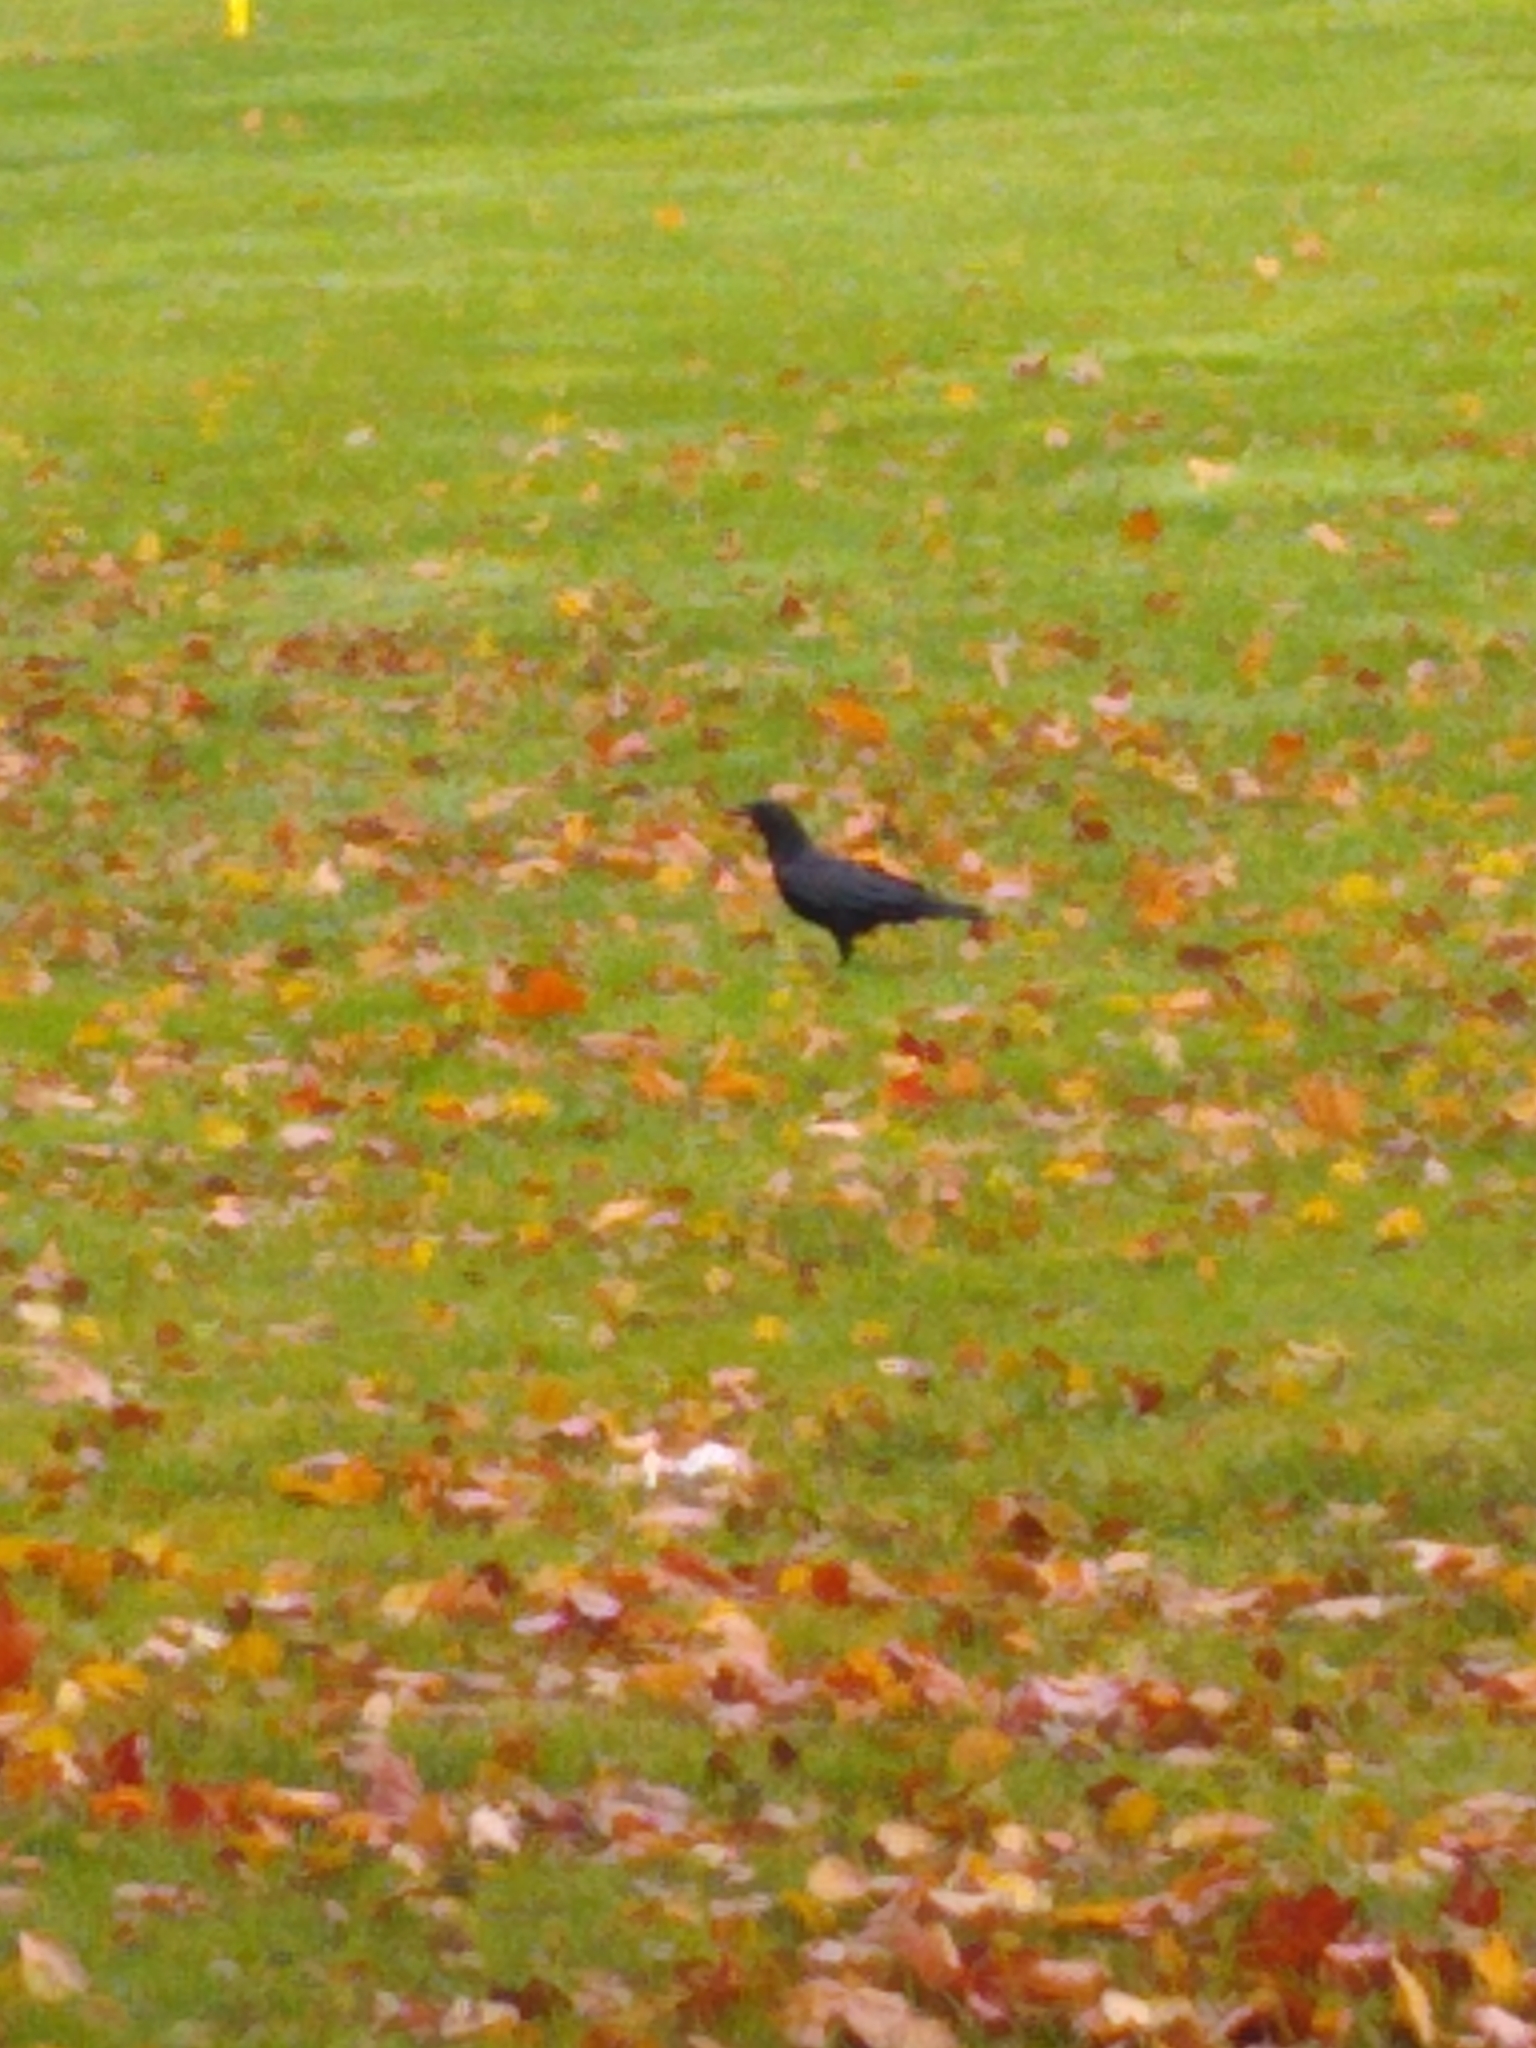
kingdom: Animalia
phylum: Chordata
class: Aves
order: Passeriformes
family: Corvidae
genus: Corvus
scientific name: Corvus brachyrhynchos
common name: American crow
